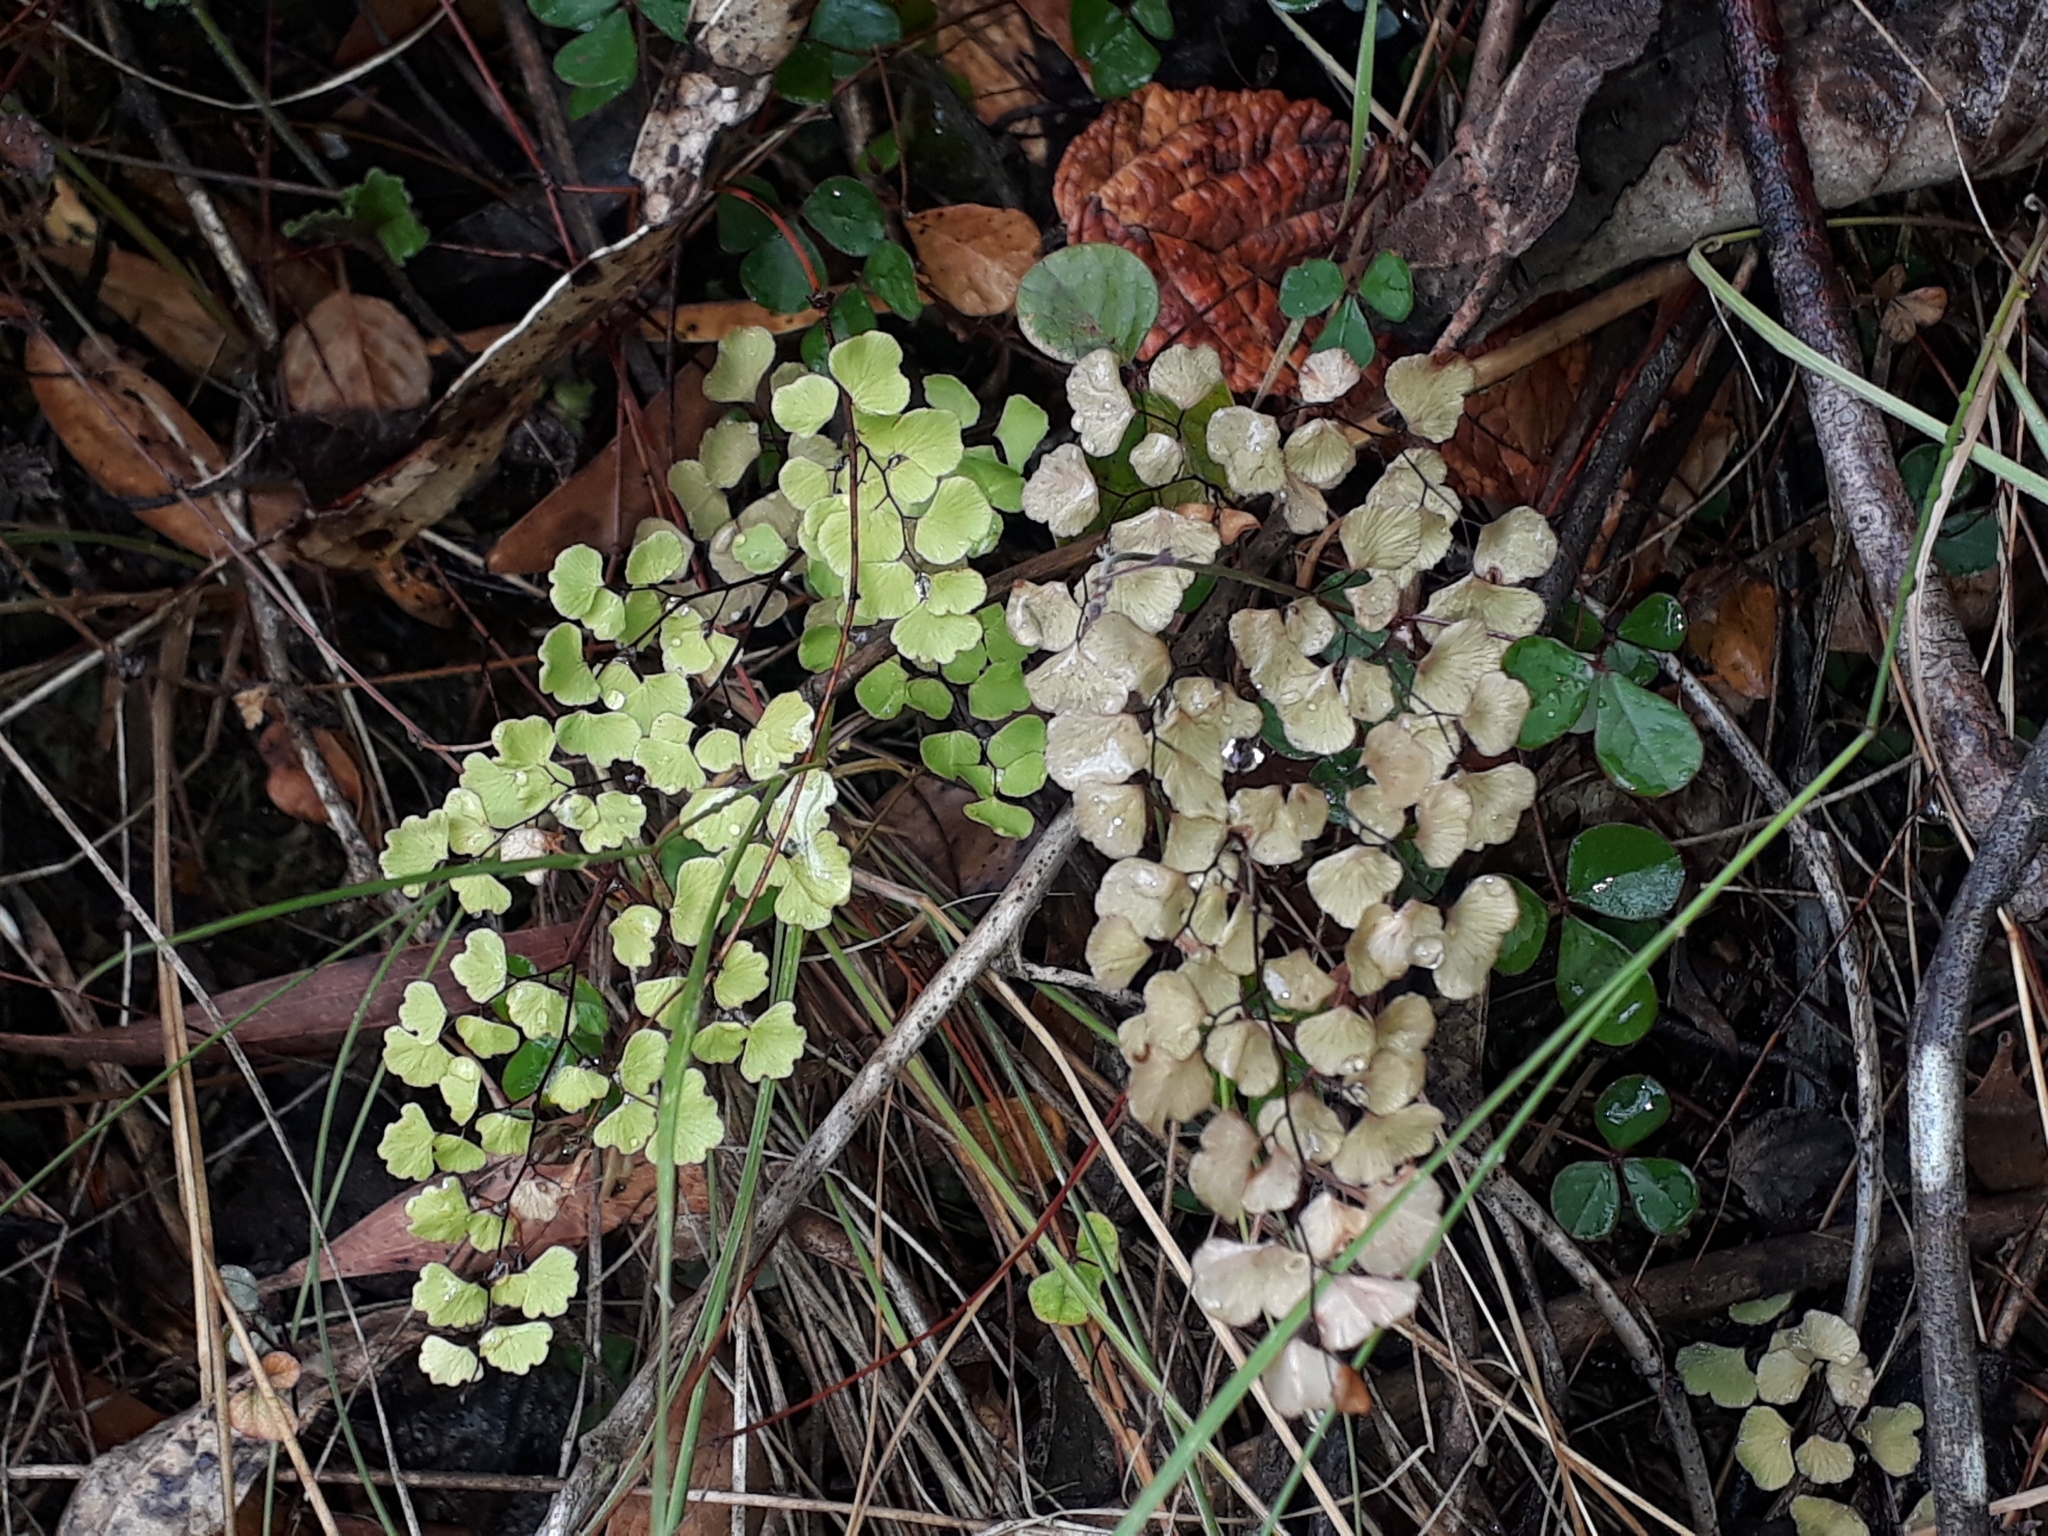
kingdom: Plantae
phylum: Tracheophyta
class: Polypodiopsida
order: Polypodiales
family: Pteridaceae
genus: Adiantum
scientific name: Adiantum aethiopicum
